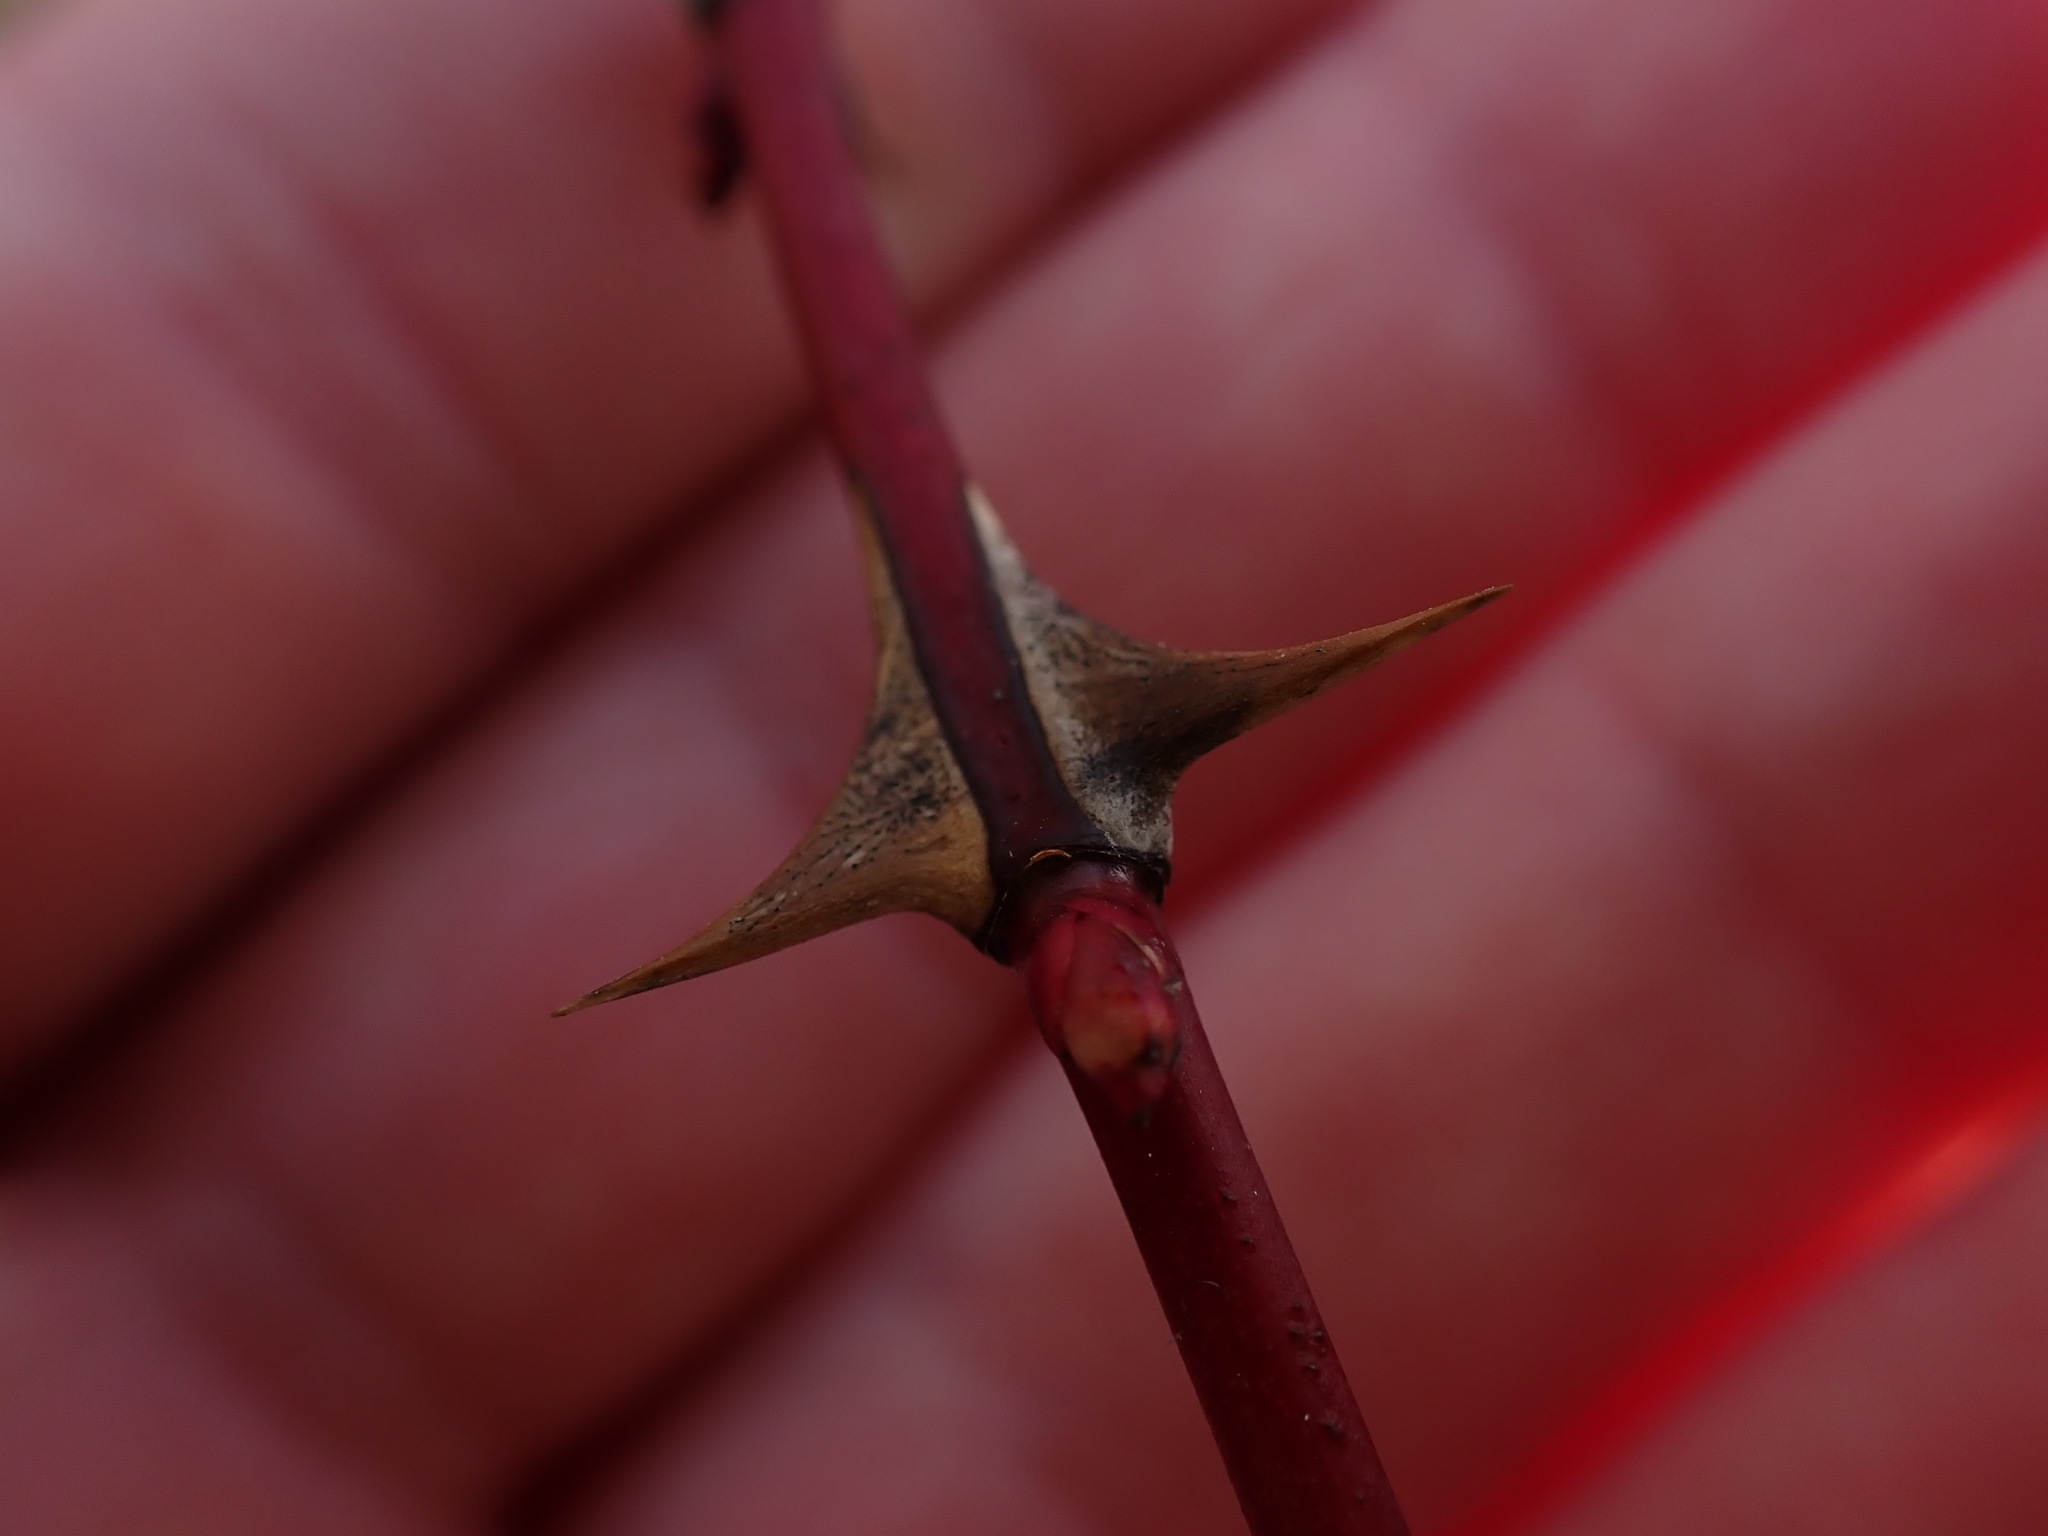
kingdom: Plantae
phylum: Tracheophyta
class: Magnoliopsida
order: Rosales
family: Rosaceae
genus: Rosa
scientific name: Rosa nutkana
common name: Nootka rose
